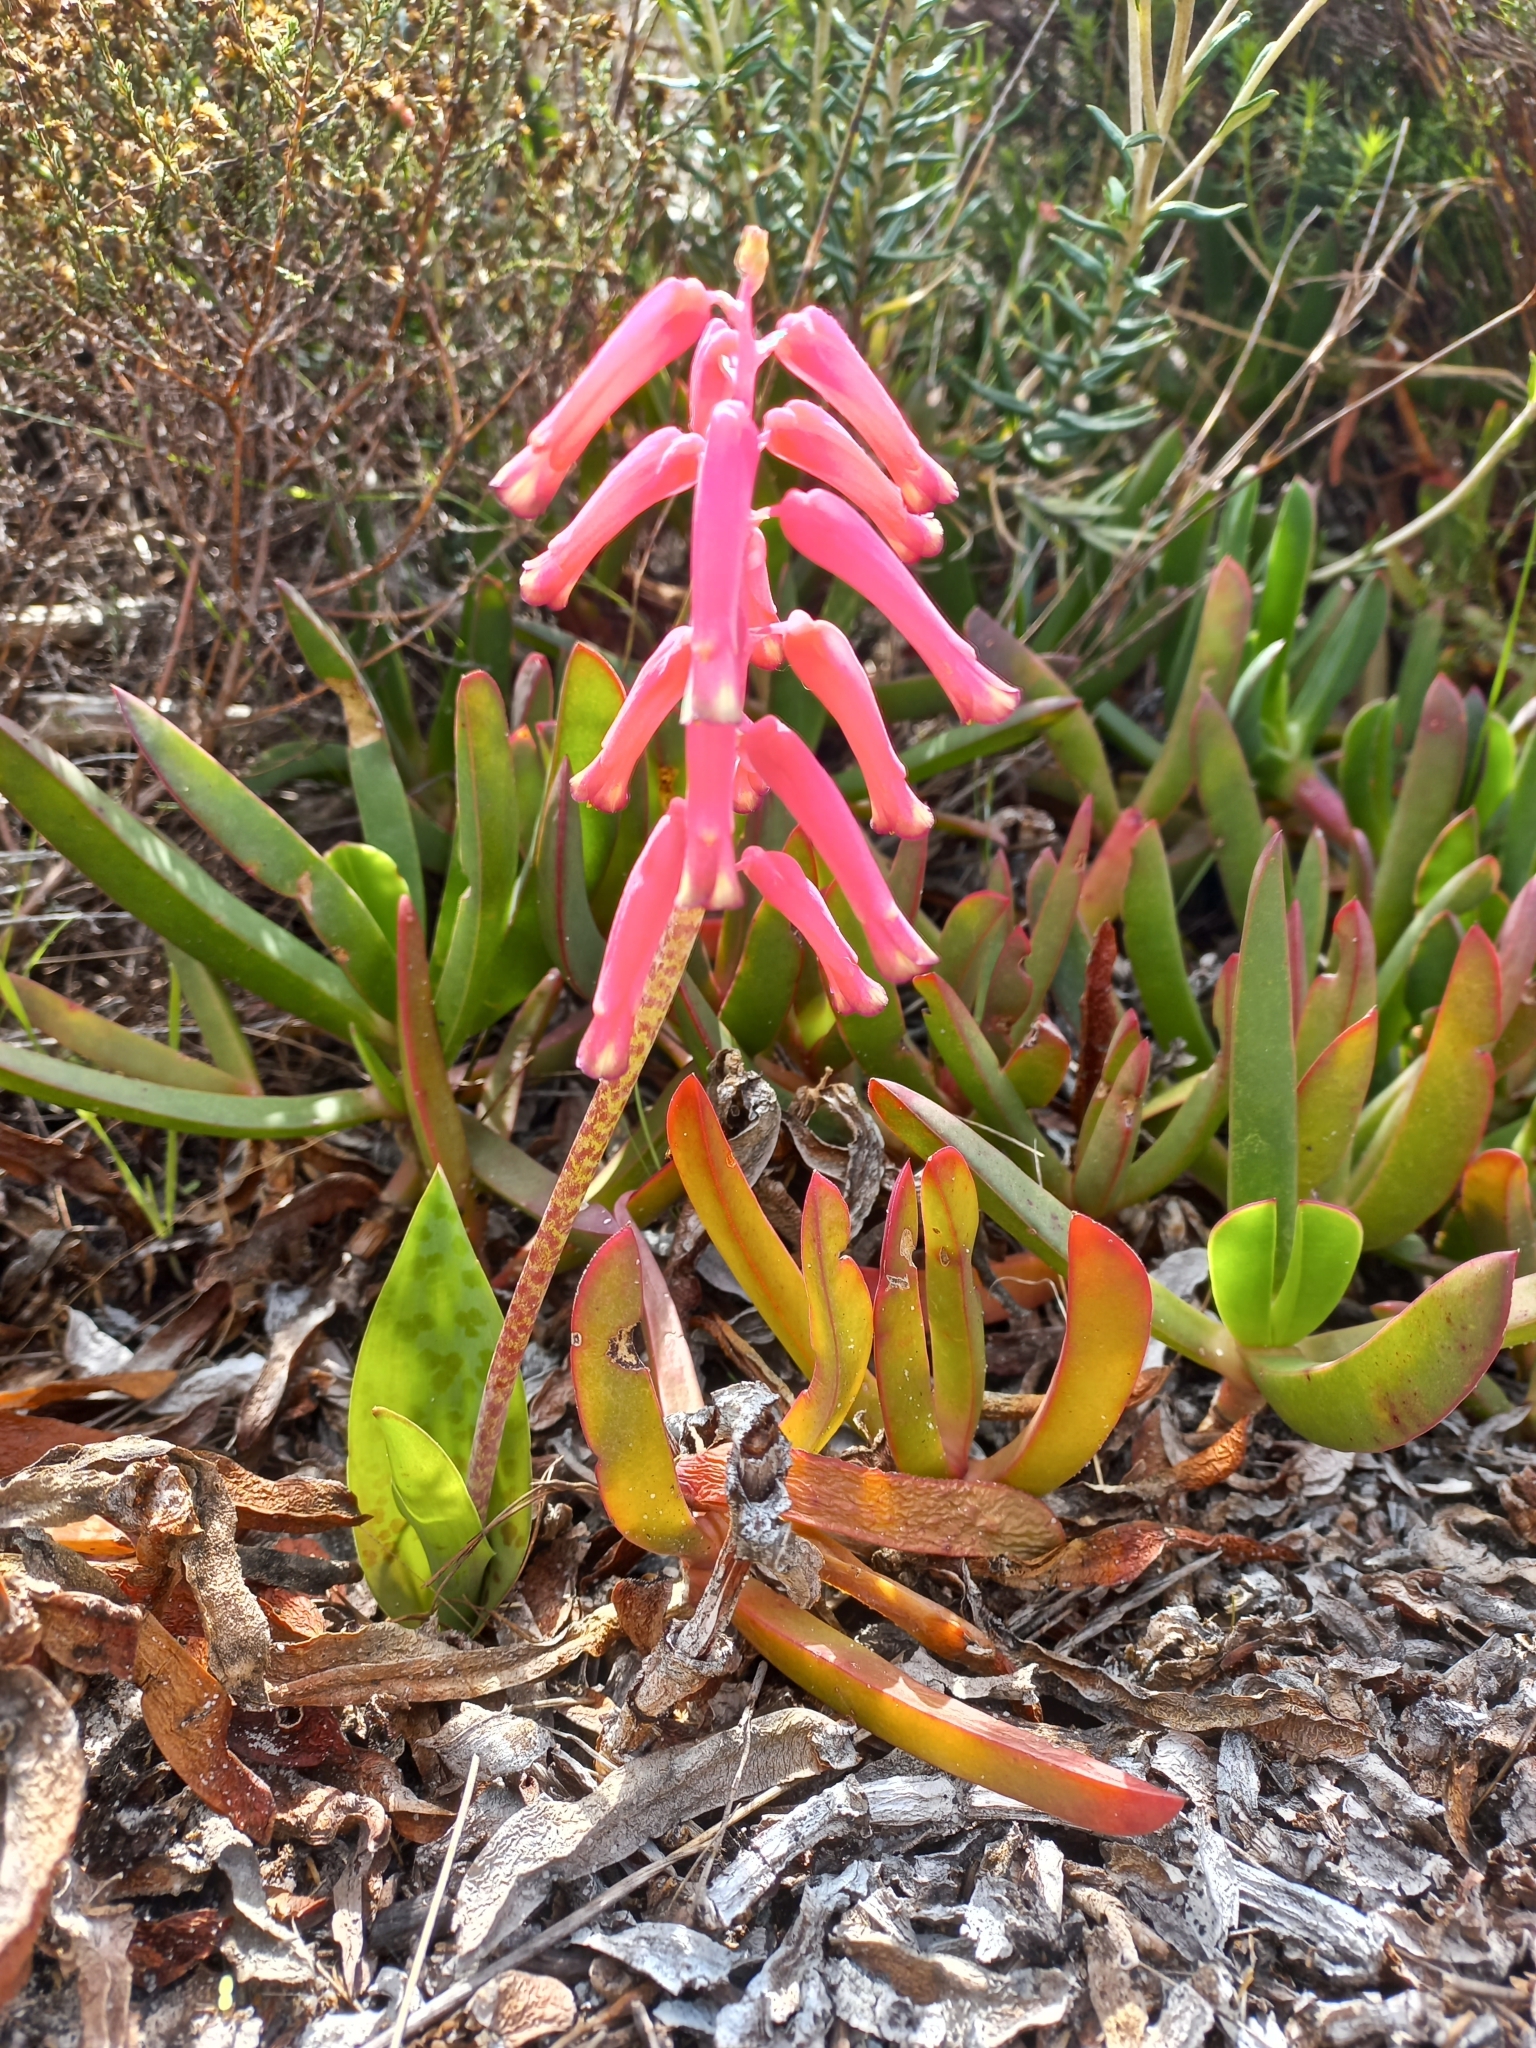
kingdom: Plantae
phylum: Tracheophyta
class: Liliopsida
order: Asparagales
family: Asparagaceae
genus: Lachenalia
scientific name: Lachenalia punctata
